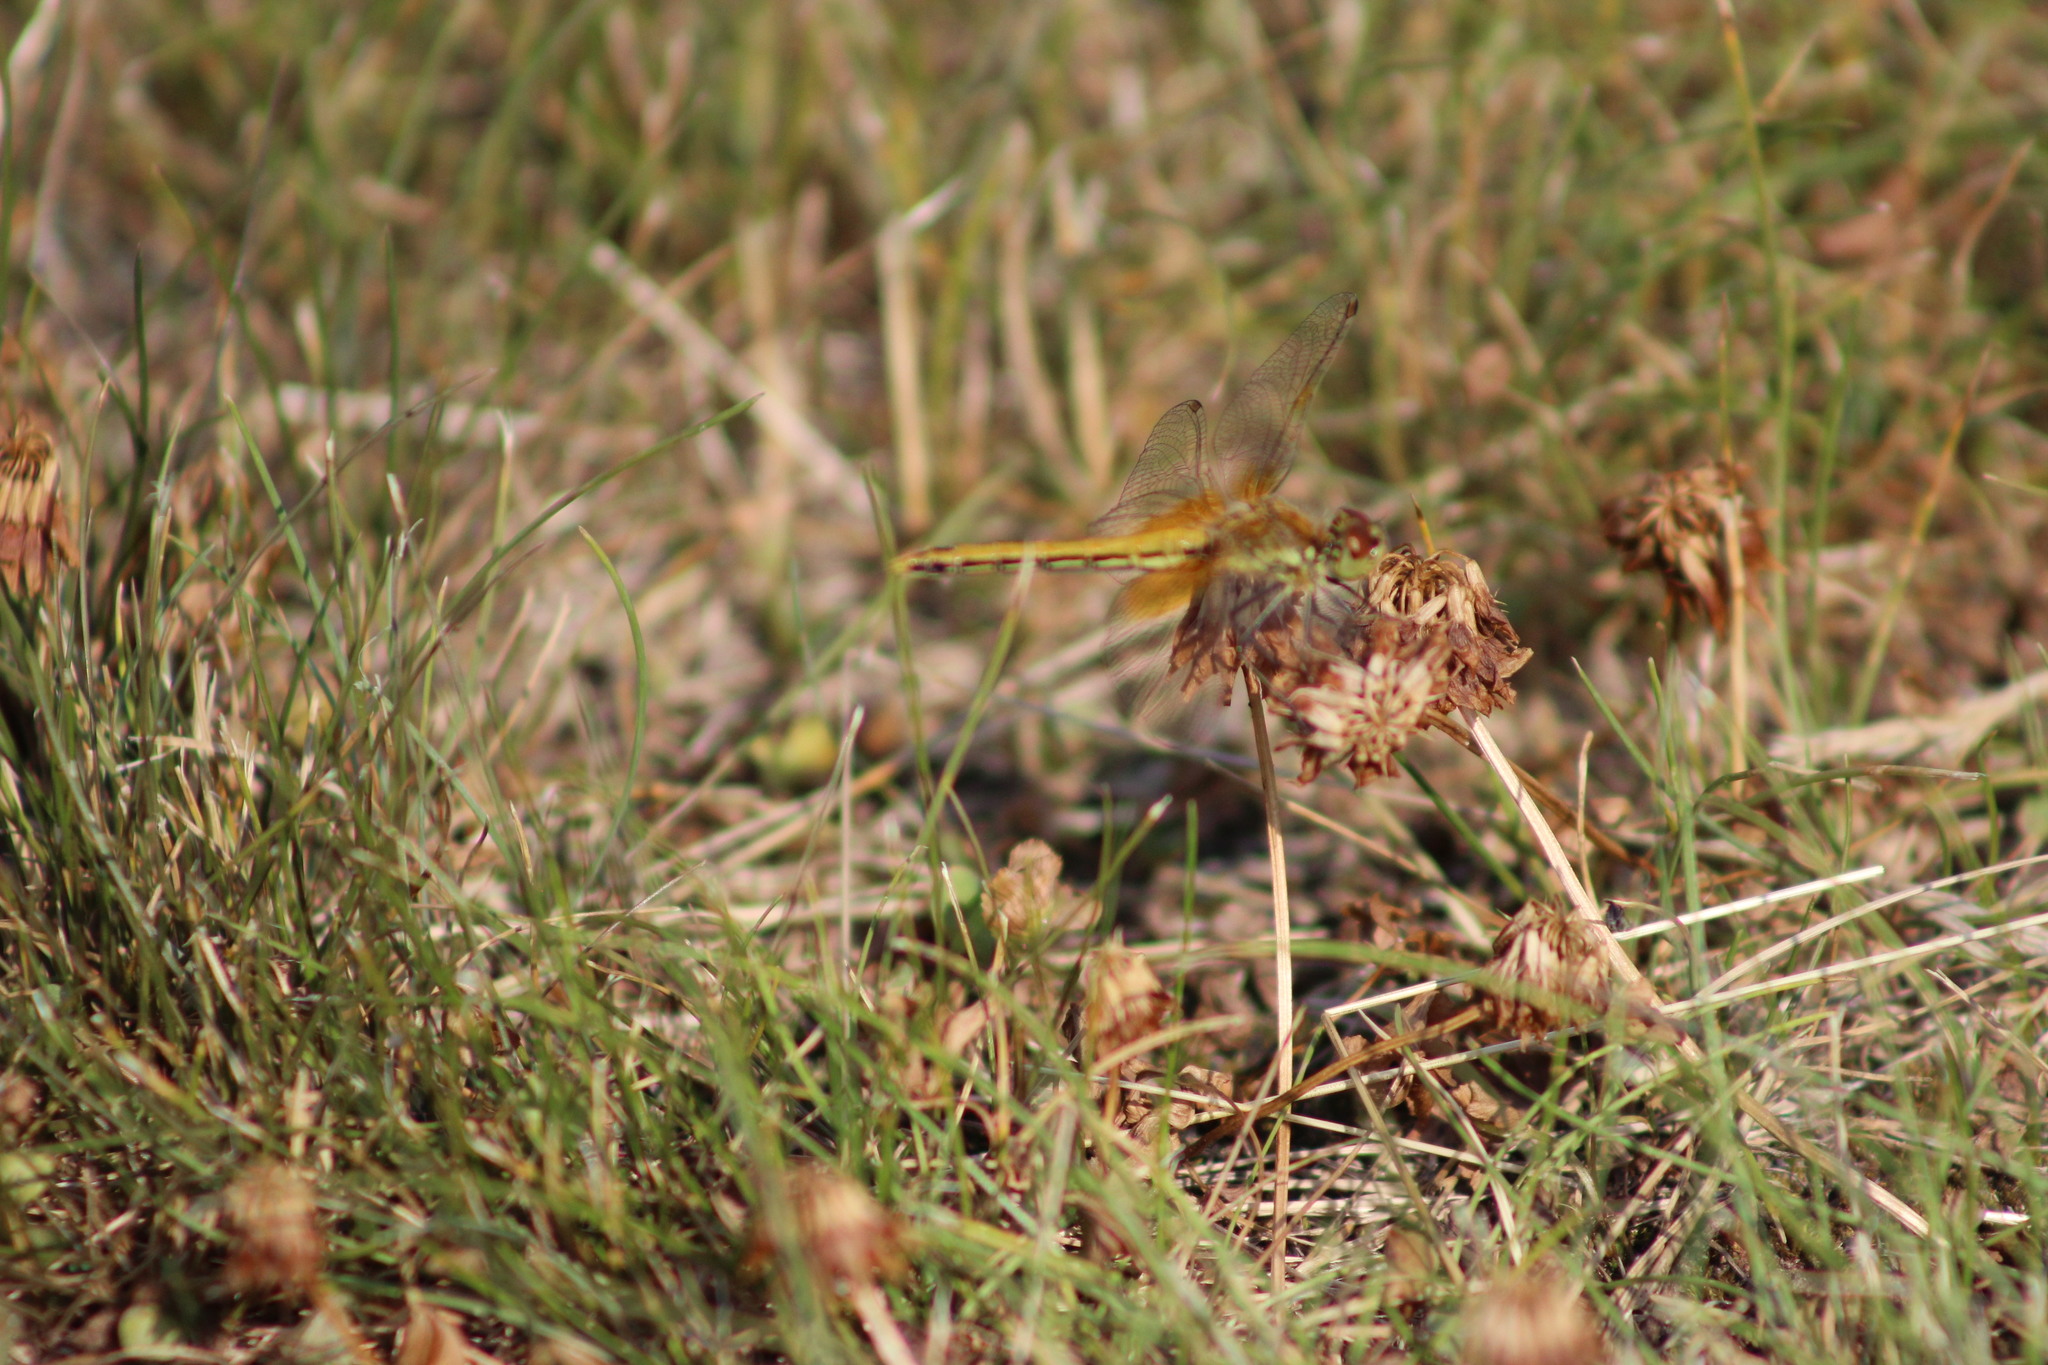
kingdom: Animalia
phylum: Arthropoda
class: Insecta
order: Odonata
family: Libellulidae
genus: Sympetrum
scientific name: Sympetrum flaveolum
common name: Yellow-winged darter
